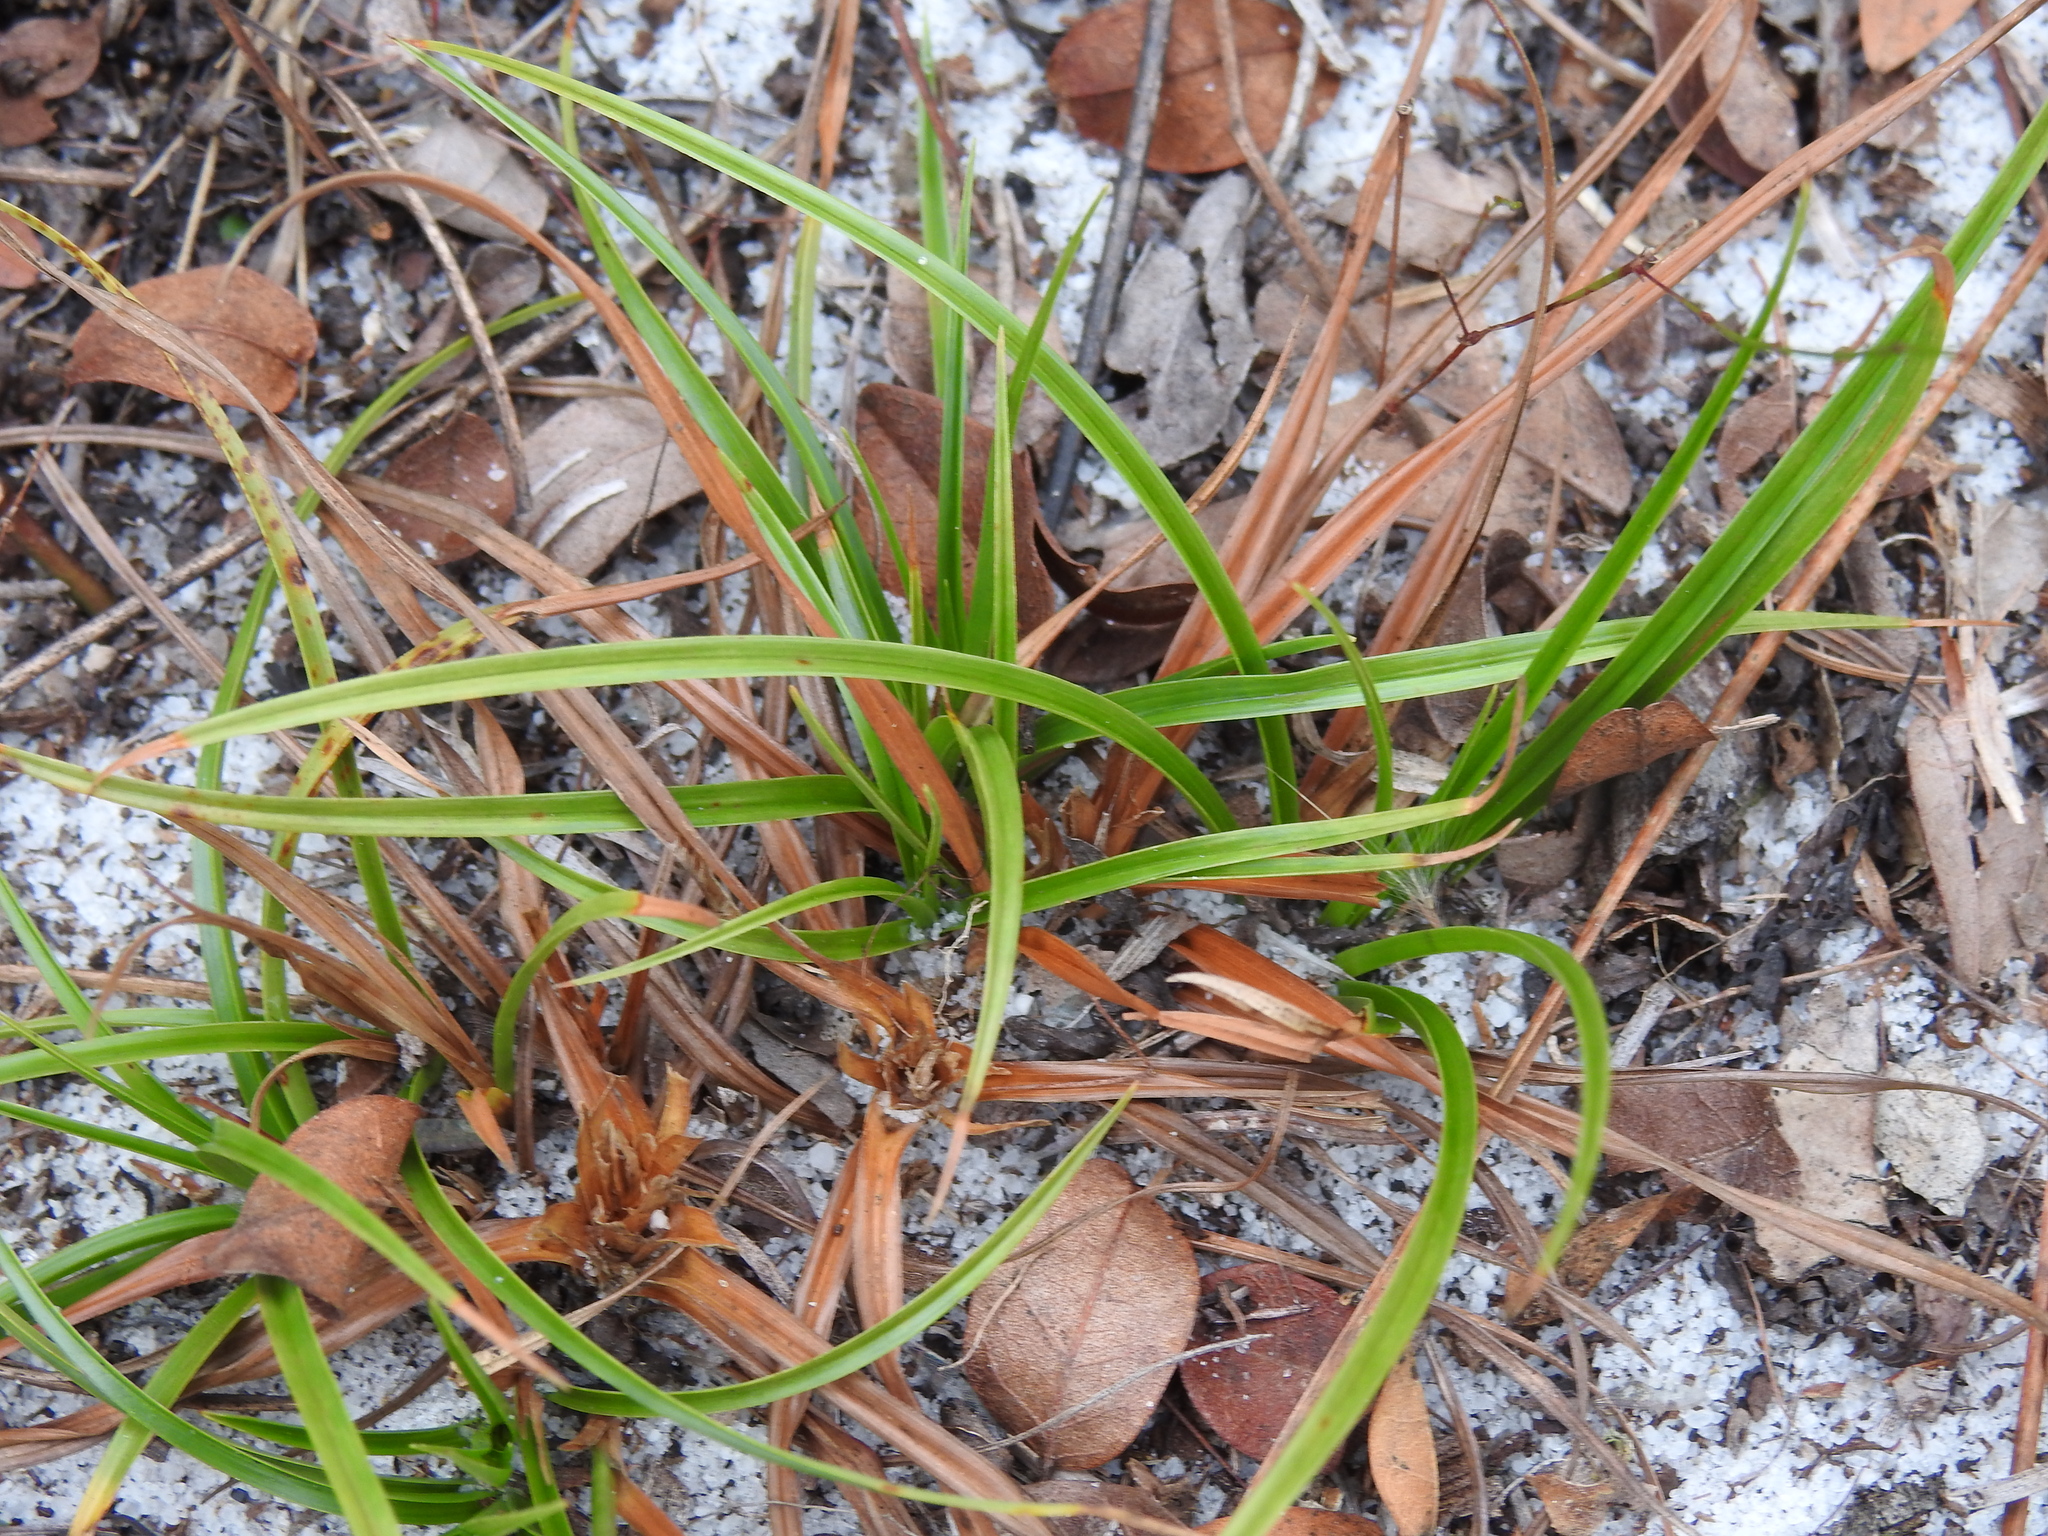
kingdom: Plantae
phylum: Tracheophyta
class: Liliopsida
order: Poales
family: Cyperaceae
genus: Rhynchospora
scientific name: Rhynchospora megalocarpa
